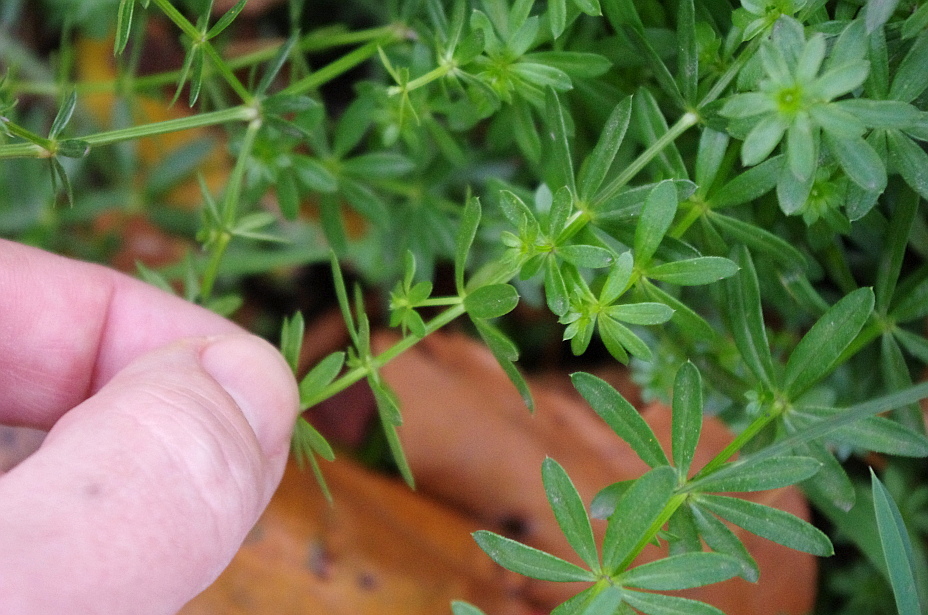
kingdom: Plantae
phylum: Tracheophyta
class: Magnoliopsida
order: Gentianales
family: Rubiaceae
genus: Galium
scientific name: Galium mollugo
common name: Hedge bedstraw
